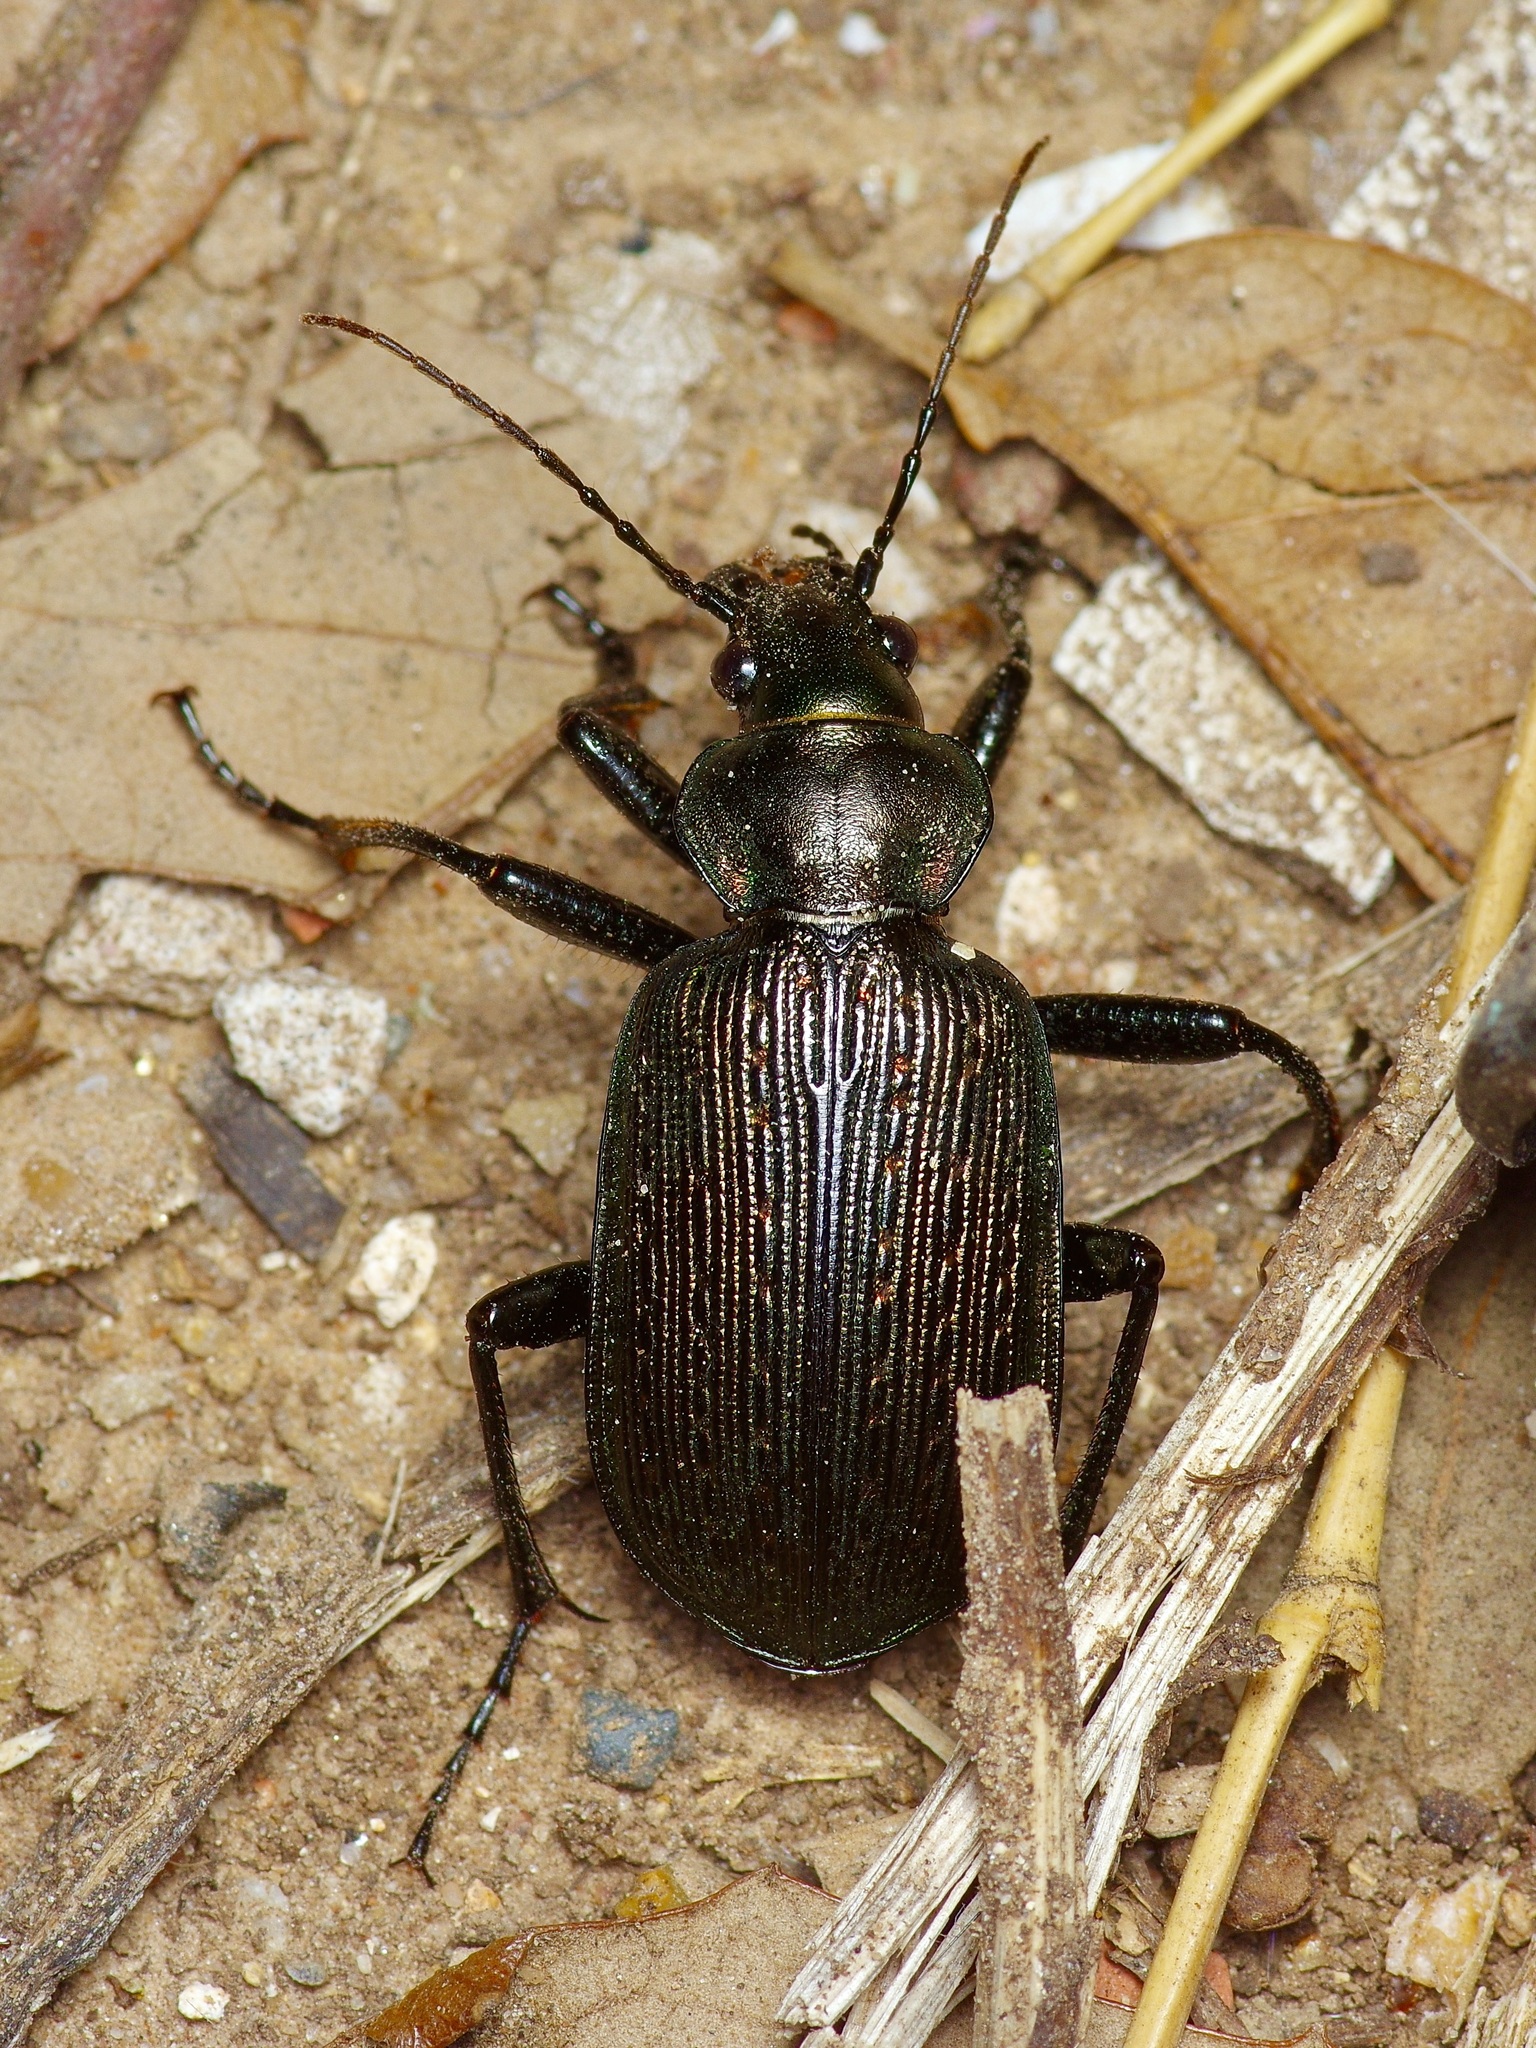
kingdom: Animalia
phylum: Arthropoda
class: Insecta
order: Coleoptera
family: Carabidae
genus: Calosoma
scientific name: Calosoma sayi
